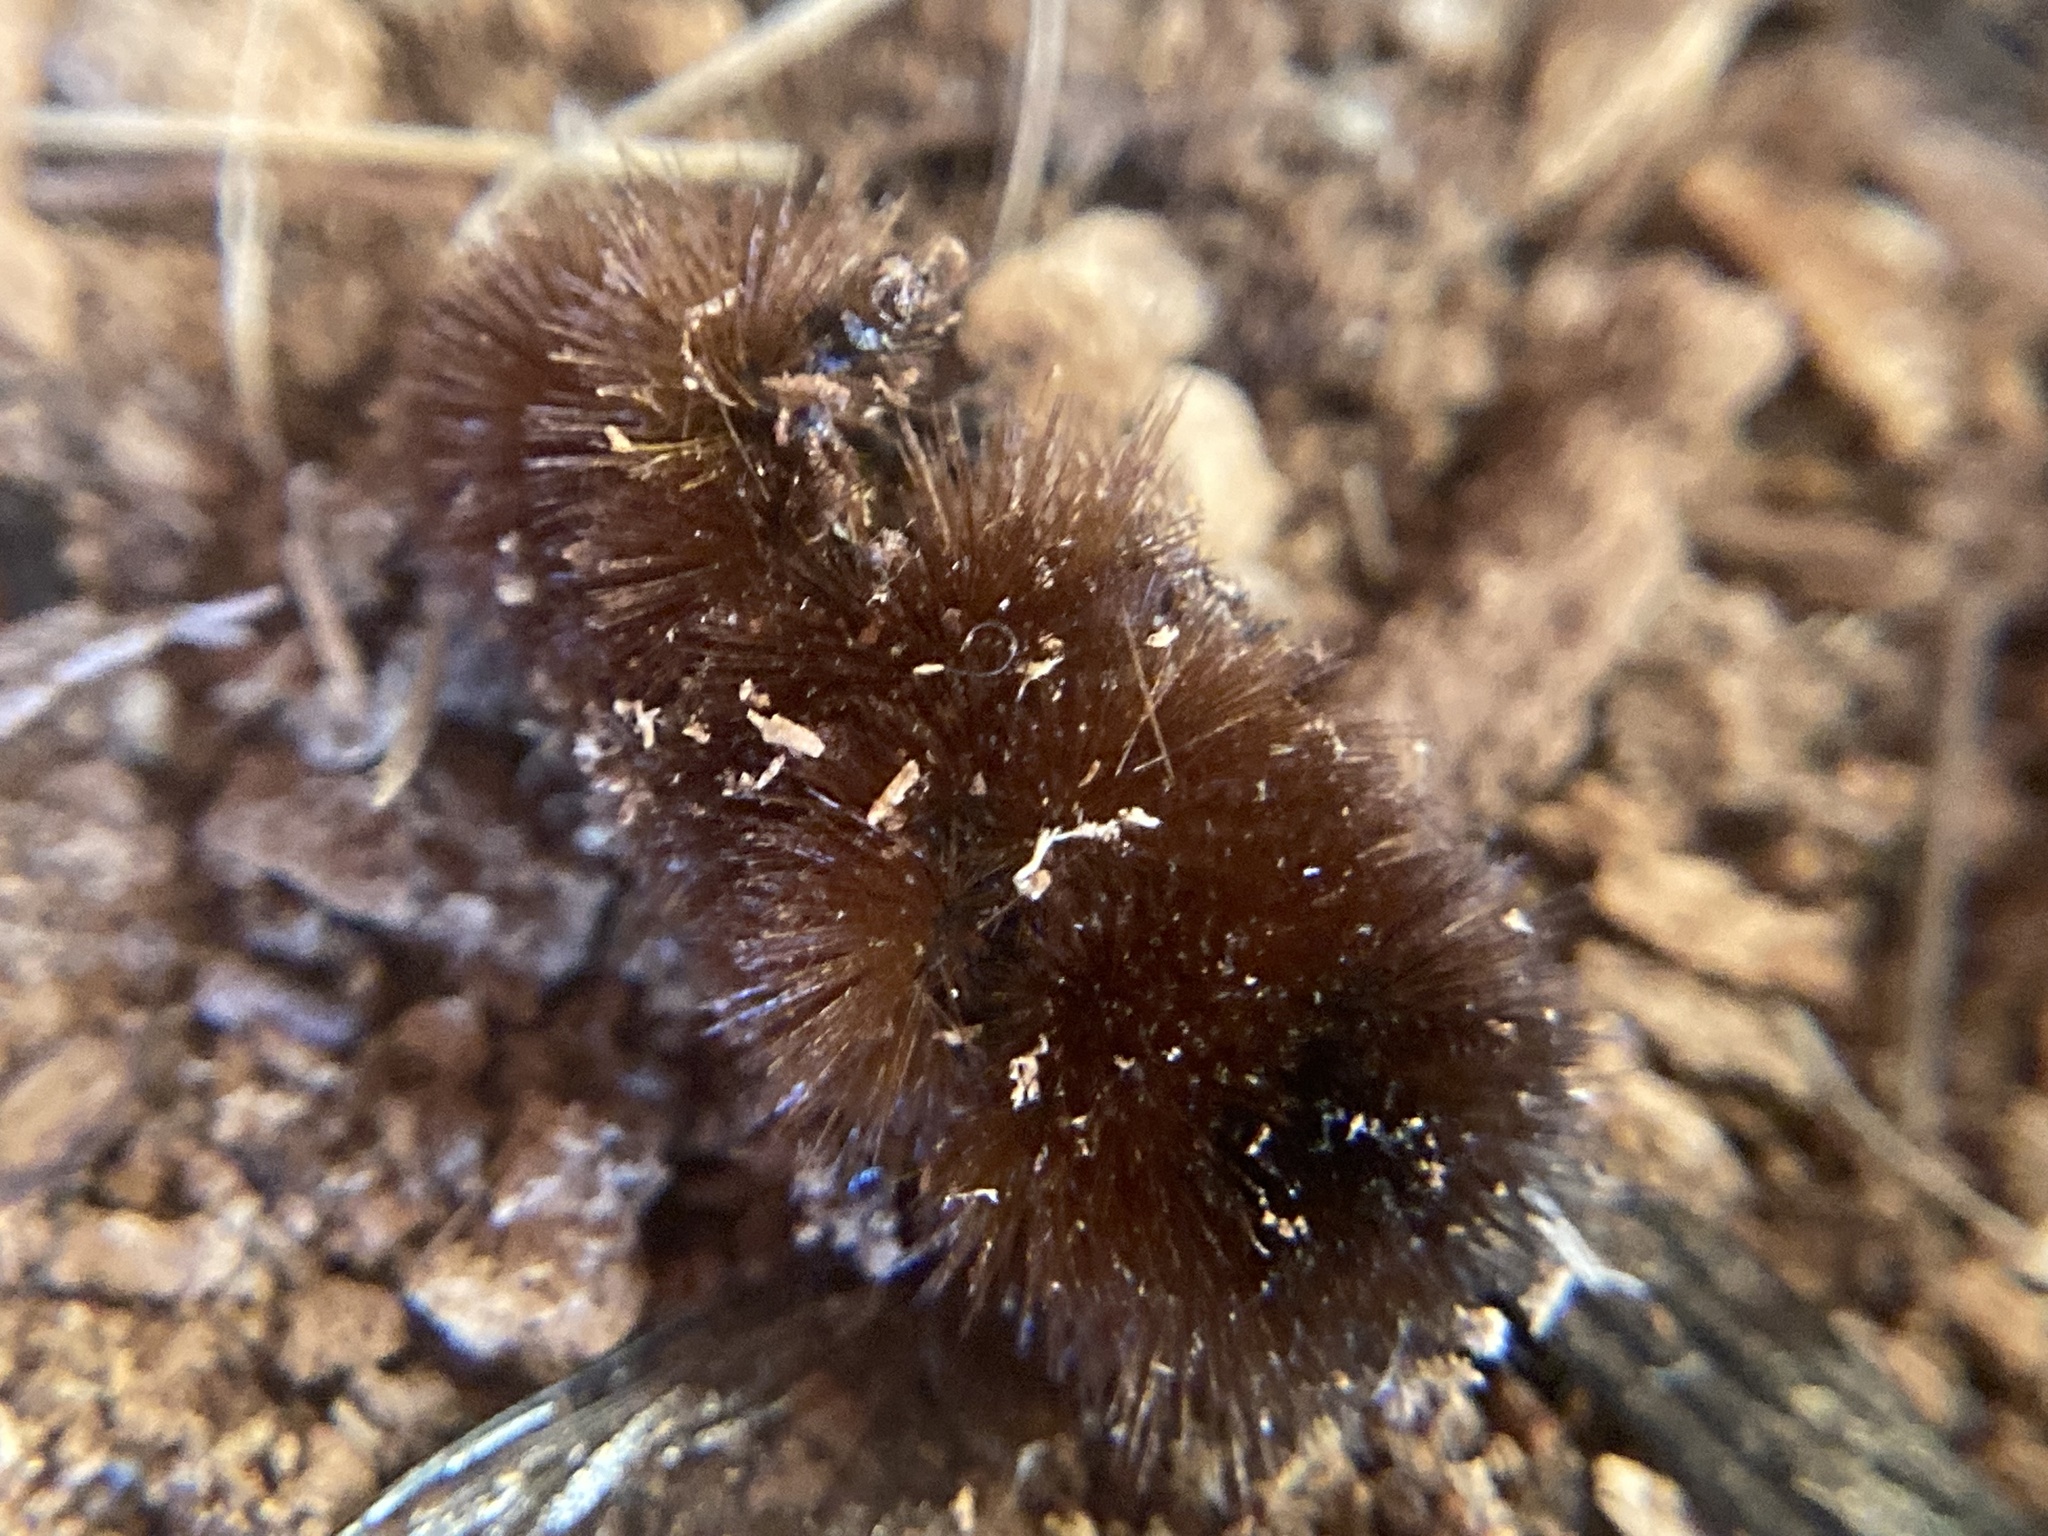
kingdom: Animalia
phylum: Arthropoda
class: Insecta
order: Lepidoptera
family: Erebidae
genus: Pyrrharctia
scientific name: Pyrrharctia isabella
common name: Isabella tiger moth
